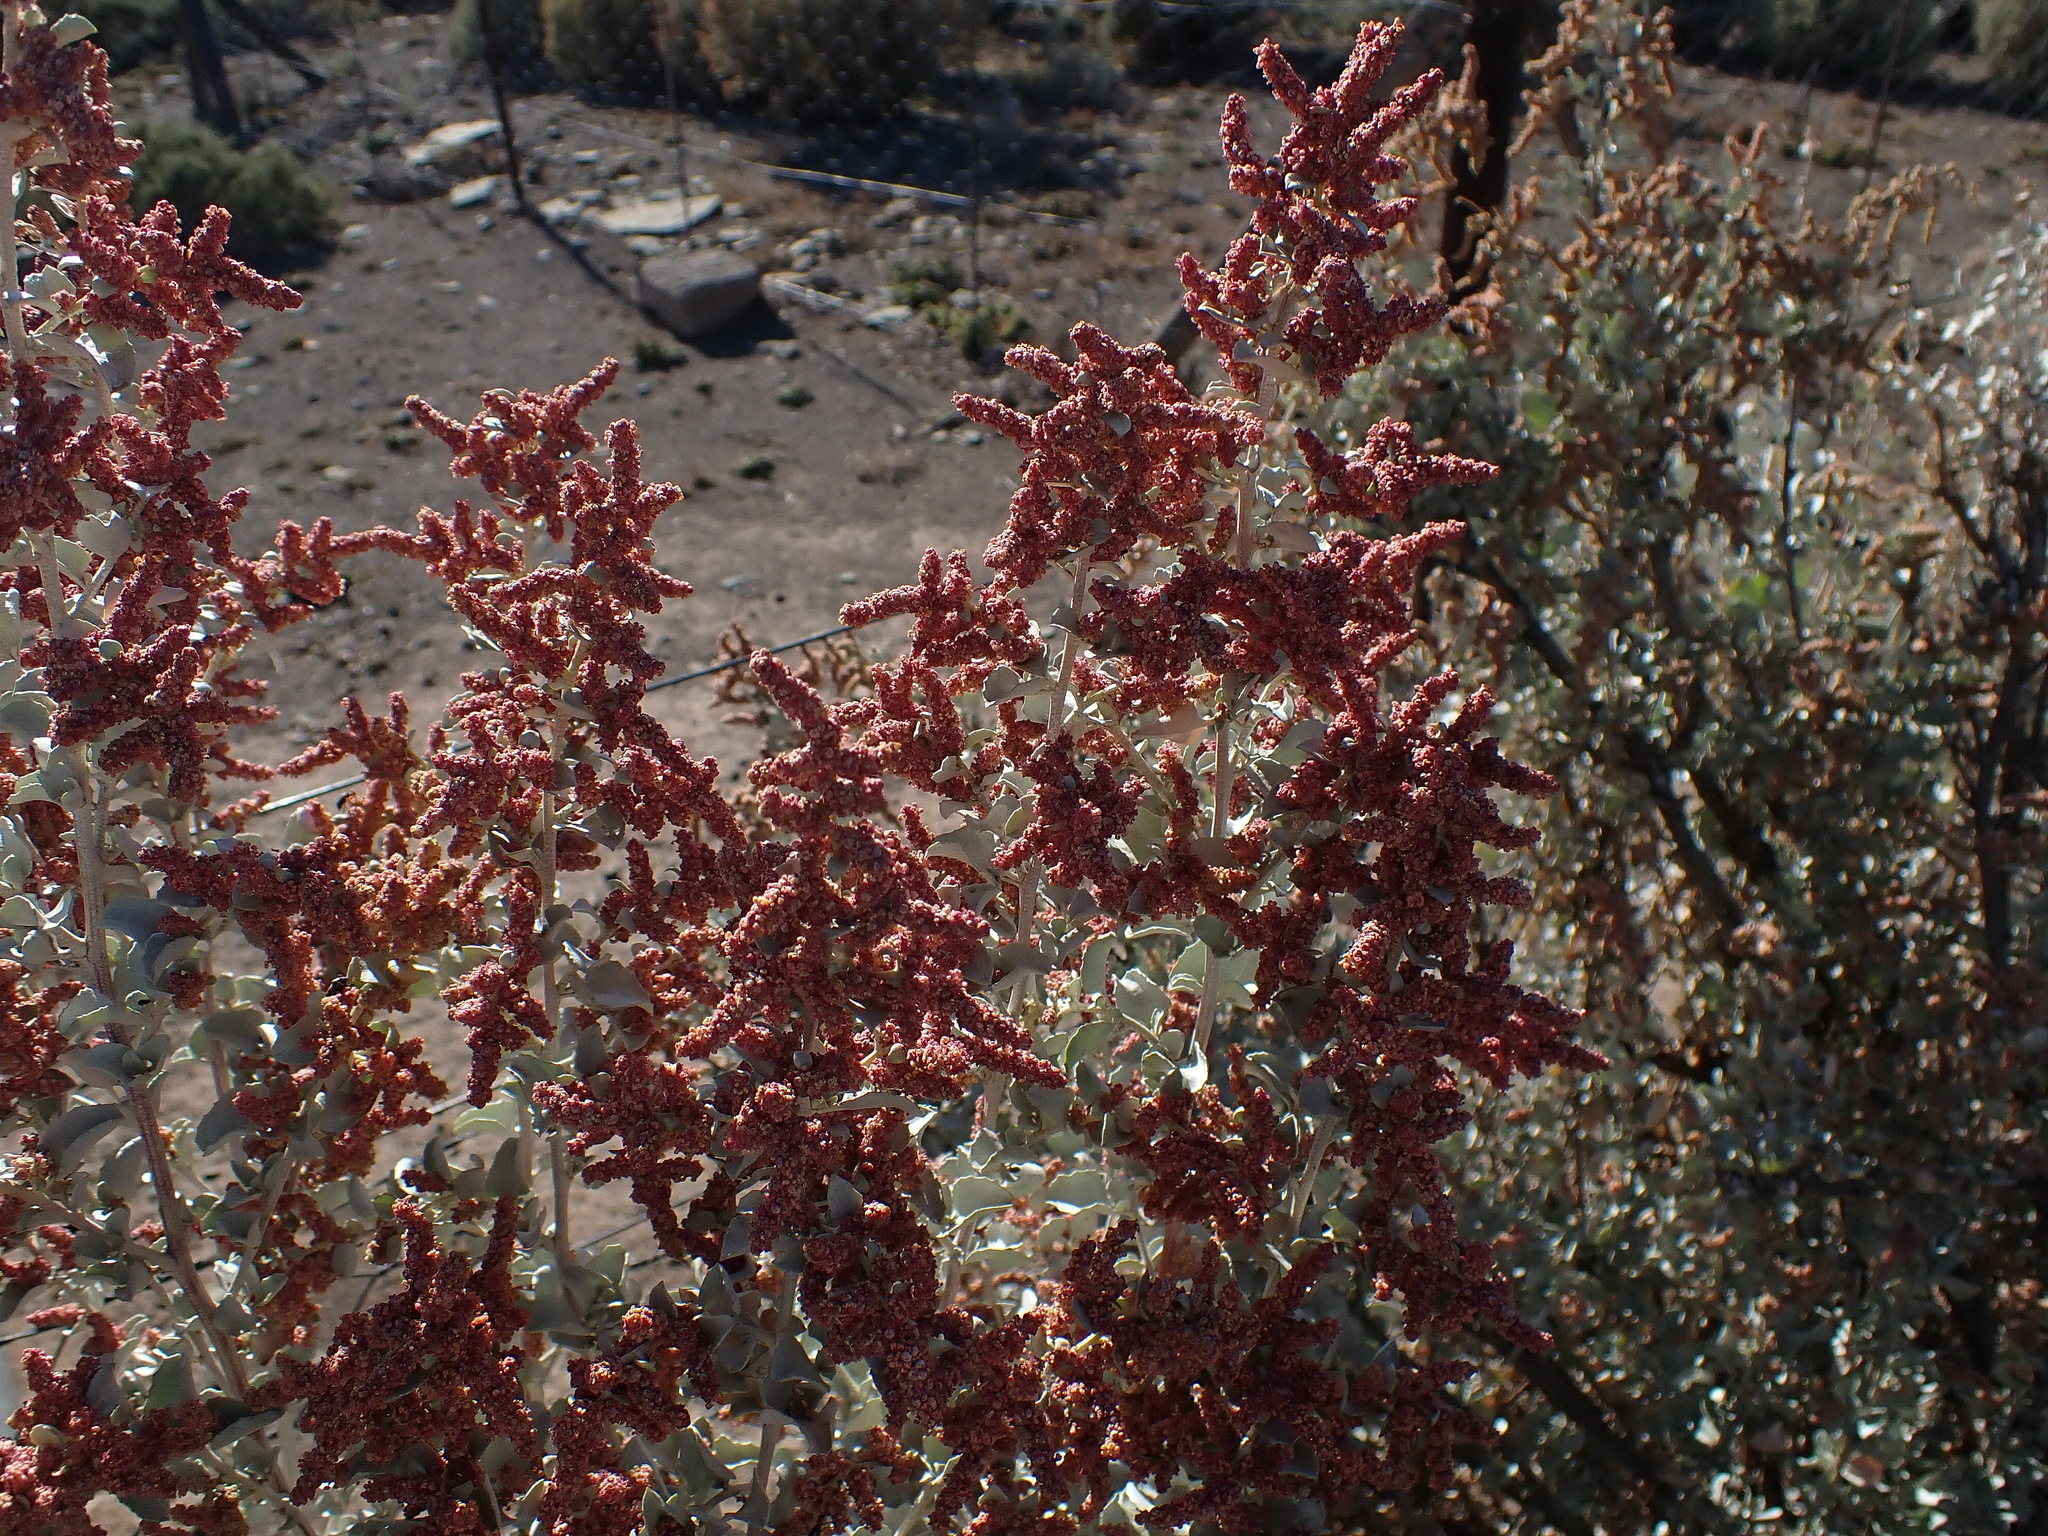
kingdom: Plantae
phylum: Tracheophyta
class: Magnoliopsida
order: Caryophyllales
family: Amaranthaceae
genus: Atriplex
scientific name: Atriplex nummularia
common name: Bluegreen saltbush
